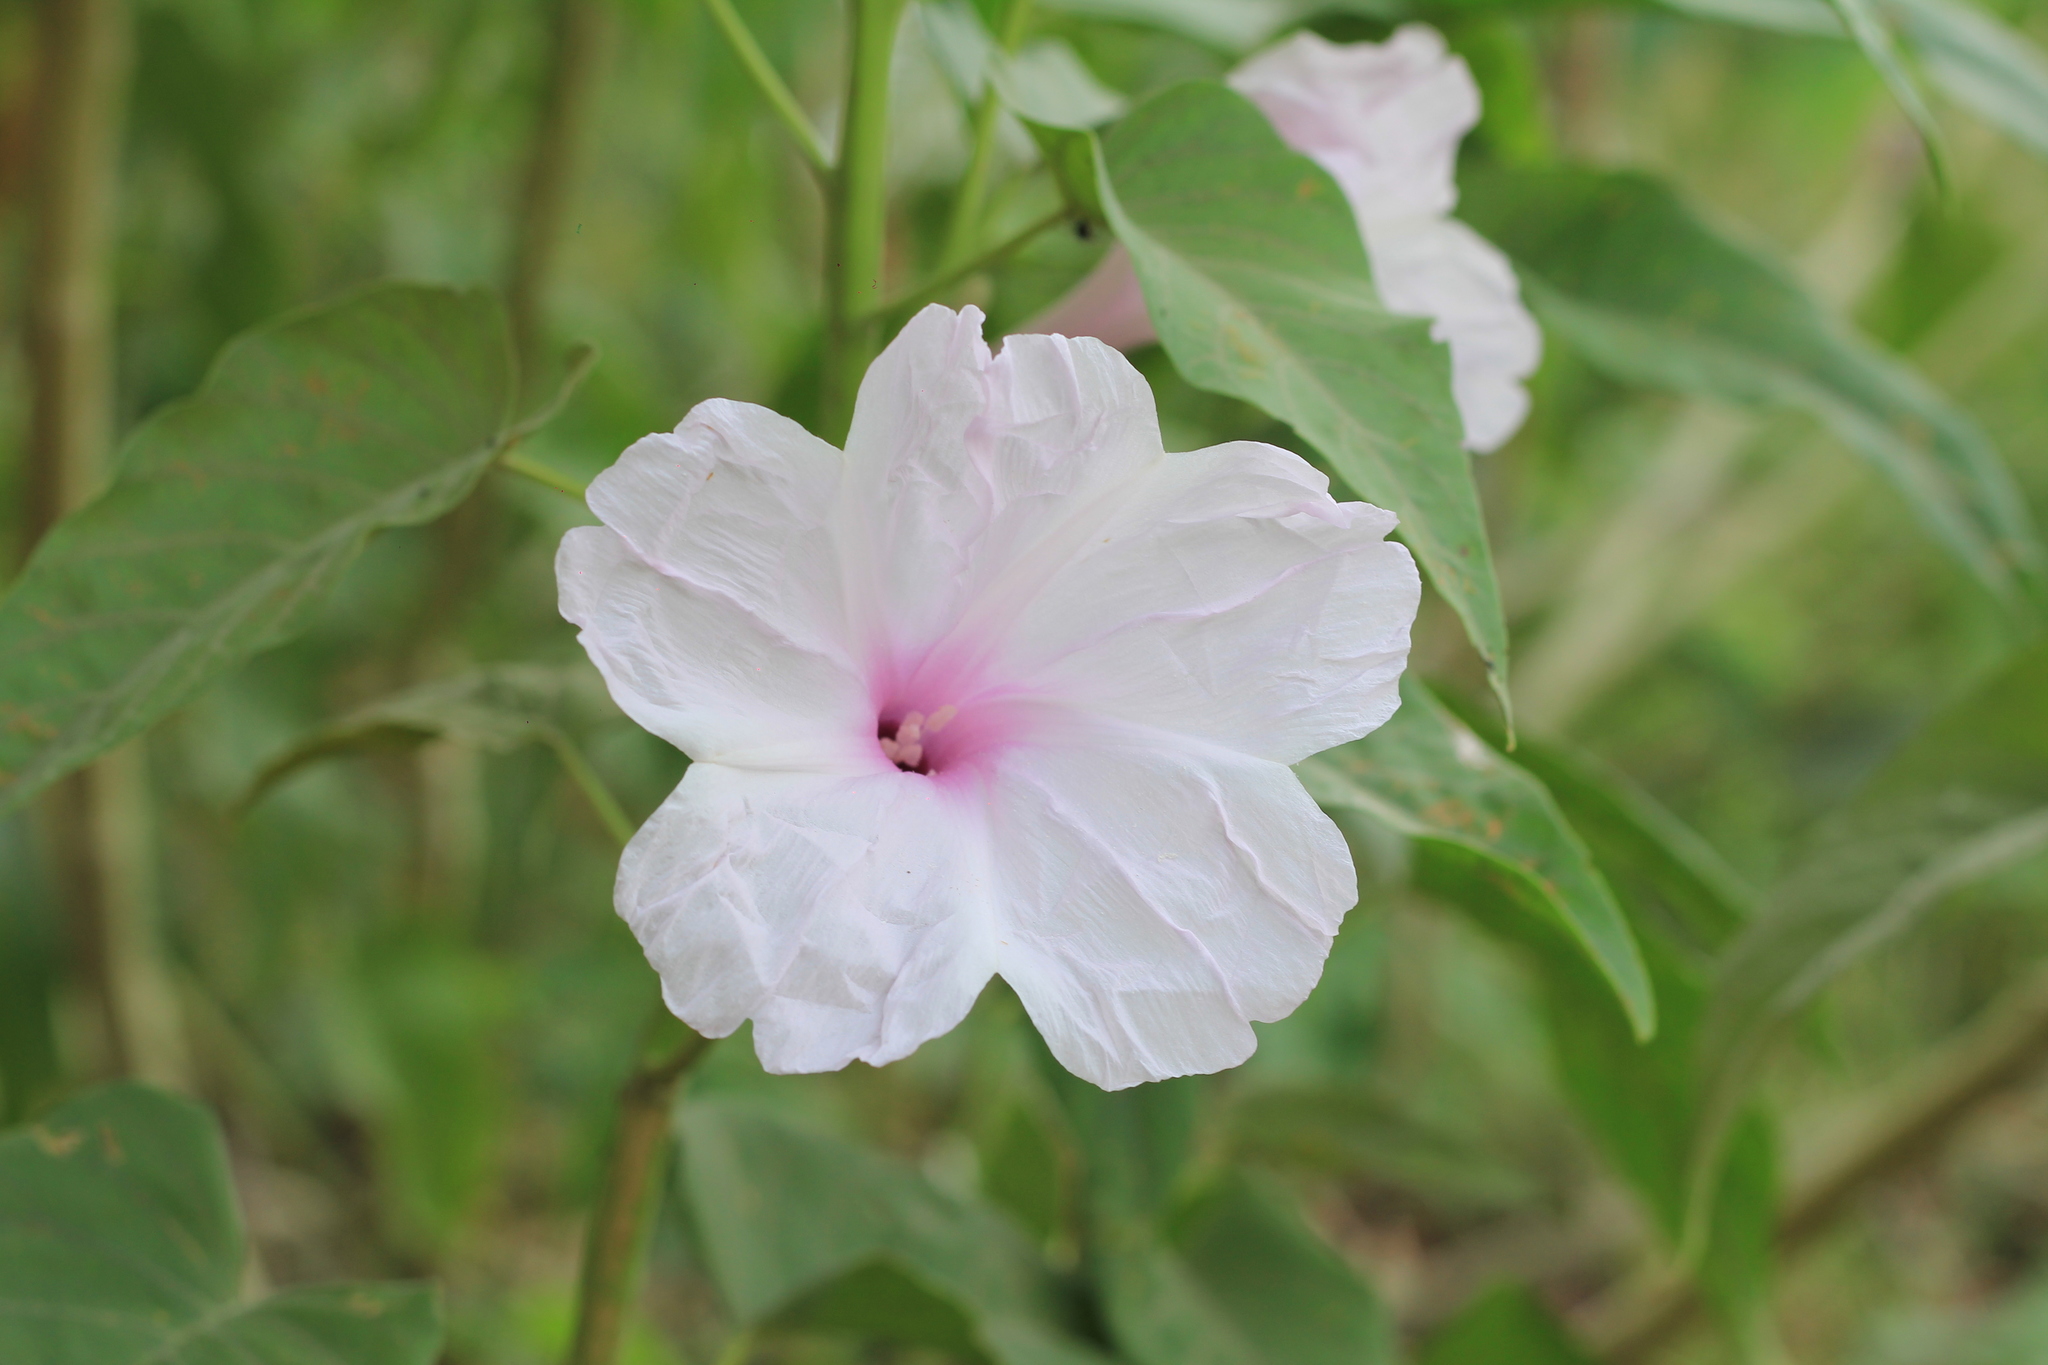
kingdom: Plantae
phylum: Tracheophyta
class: Magnoliopsida
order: Solanales
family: Convolvulaceae
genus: Ipomoea
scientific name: Ipomoea carnea
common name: Morning-glory
